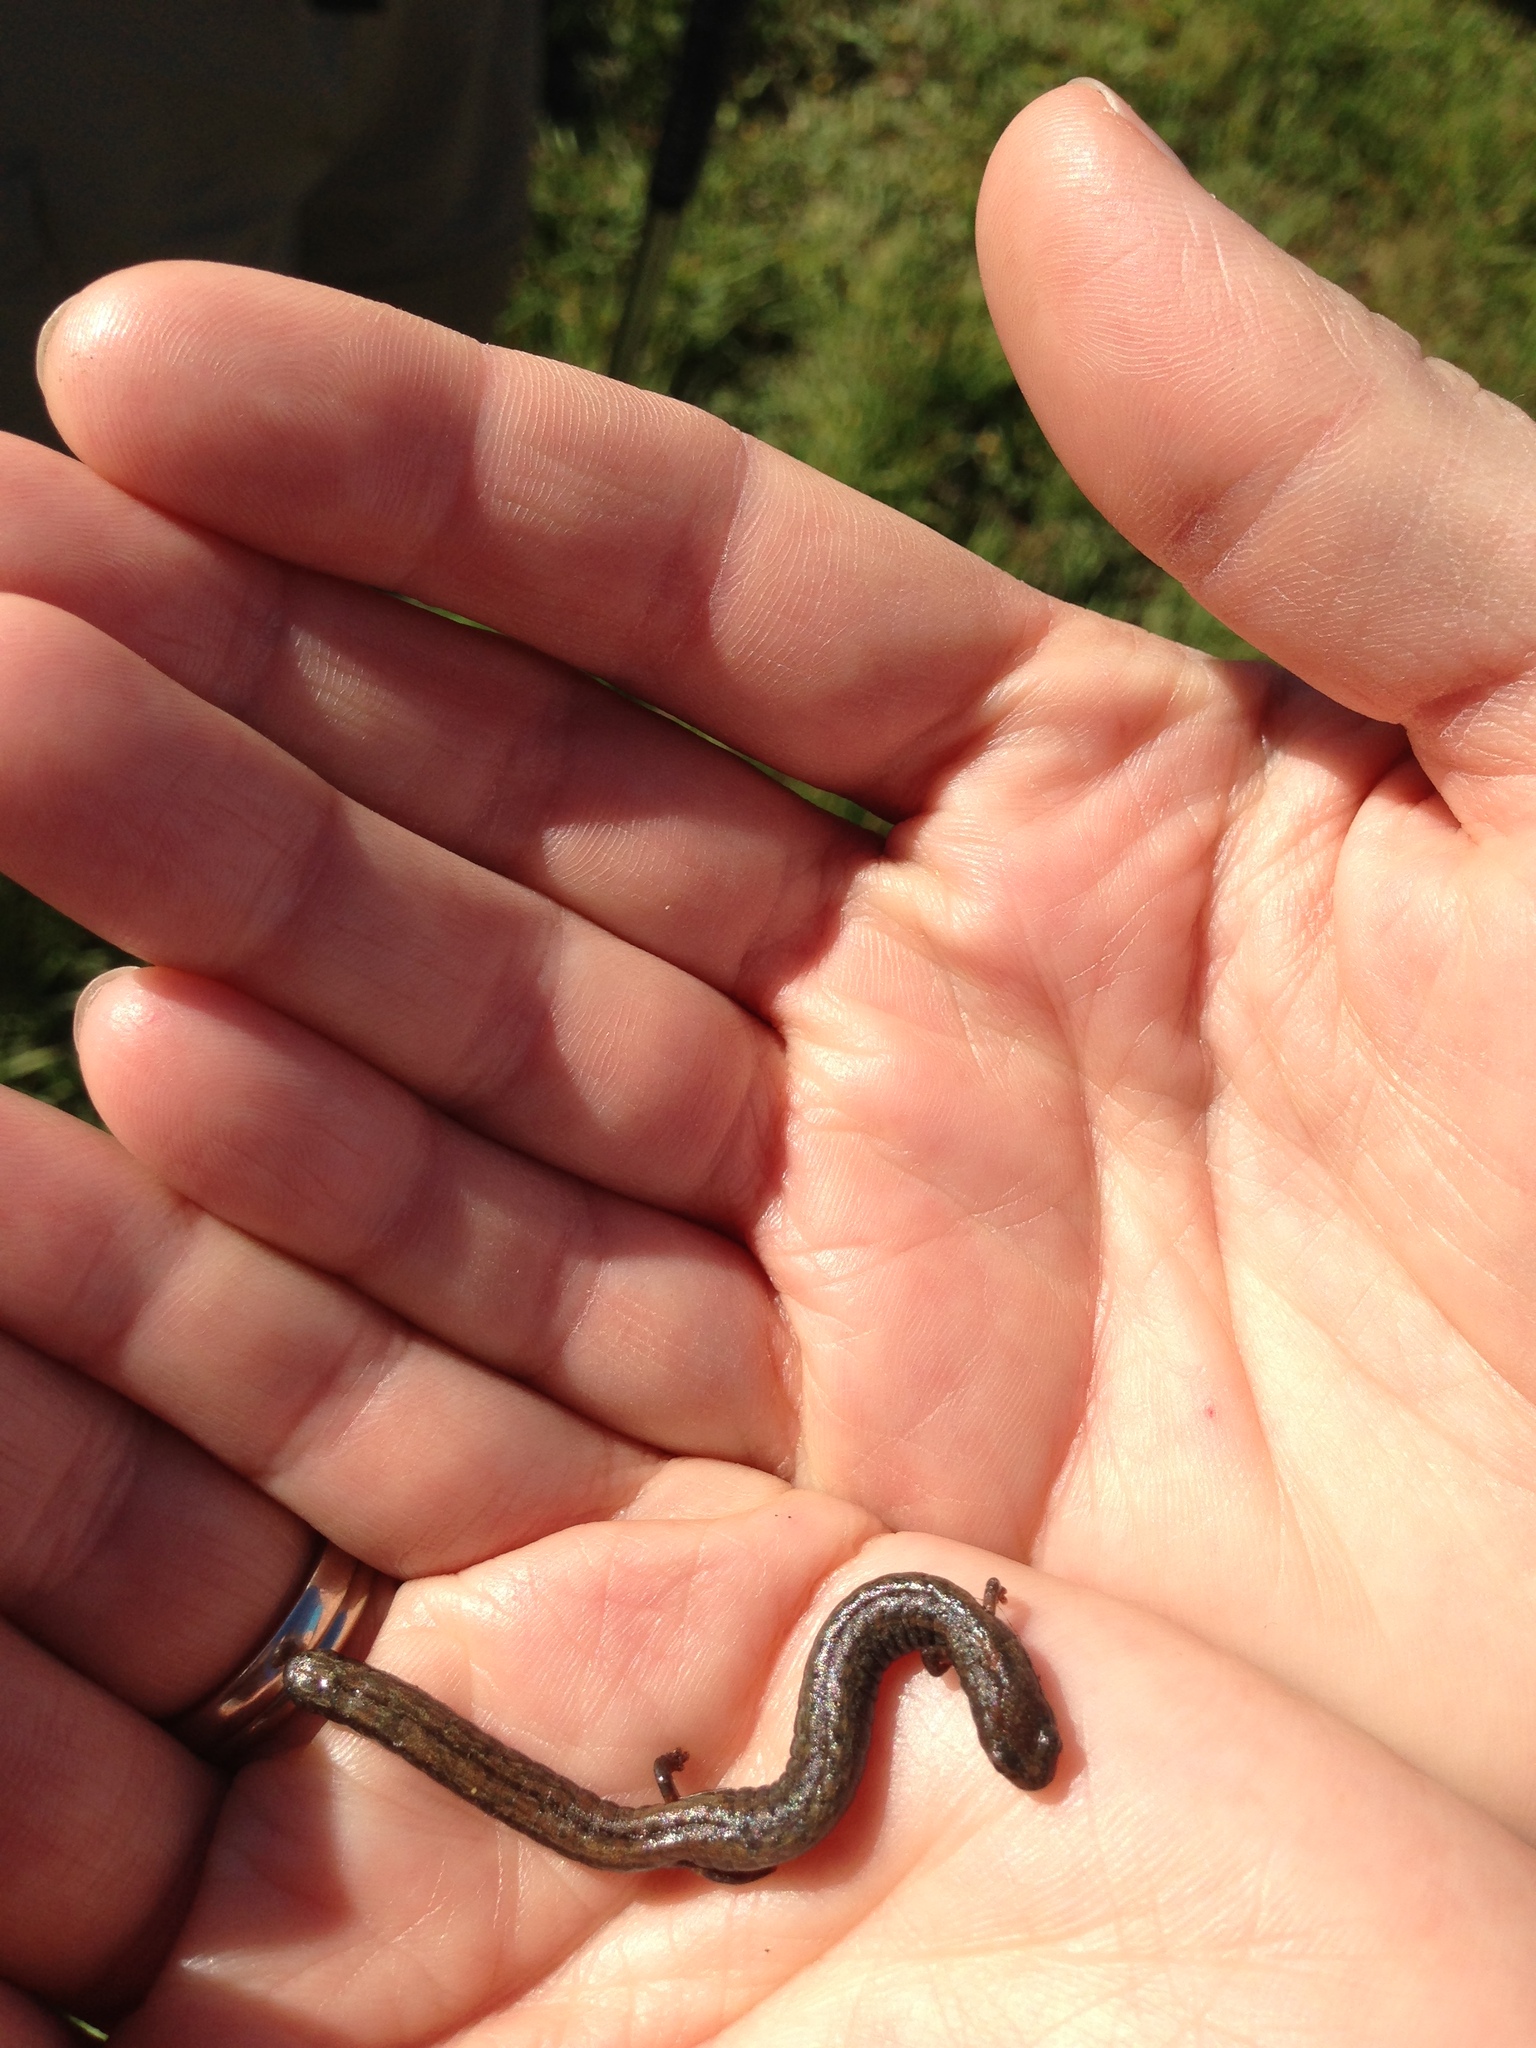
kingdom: Animalia
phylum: Chordata
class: Amphibia
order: Caudata
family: Plethodontidae
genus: Batrachoseps
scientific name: Batrachoseps nigriventris
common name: Black-bellied slender salamander
